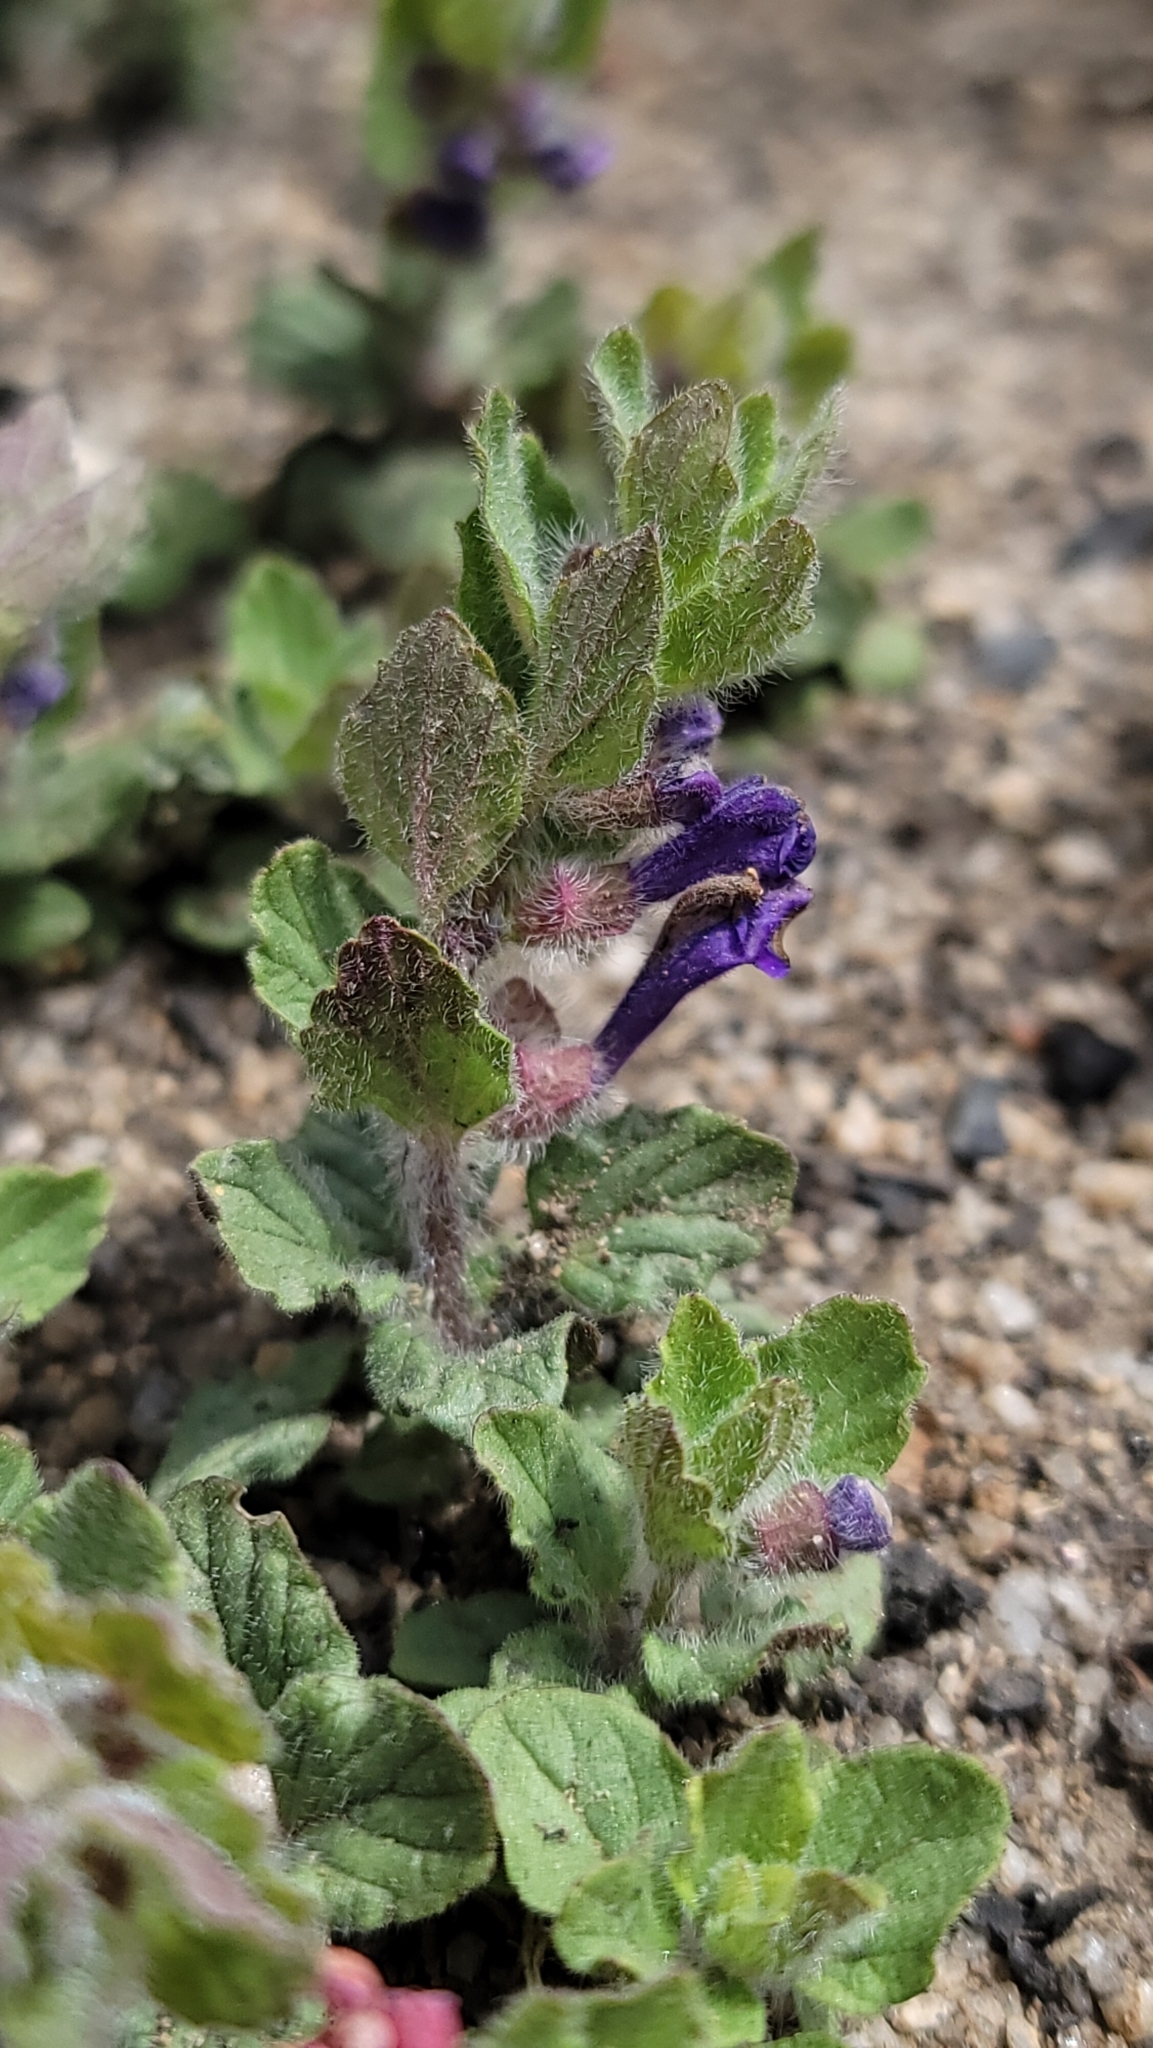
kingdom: Plantae
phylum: Tracheophyta
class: Magnoliopsida
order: Lamiales
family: Lamiaceae
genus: Scutellaria
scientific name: Scutellaria tuberosa
